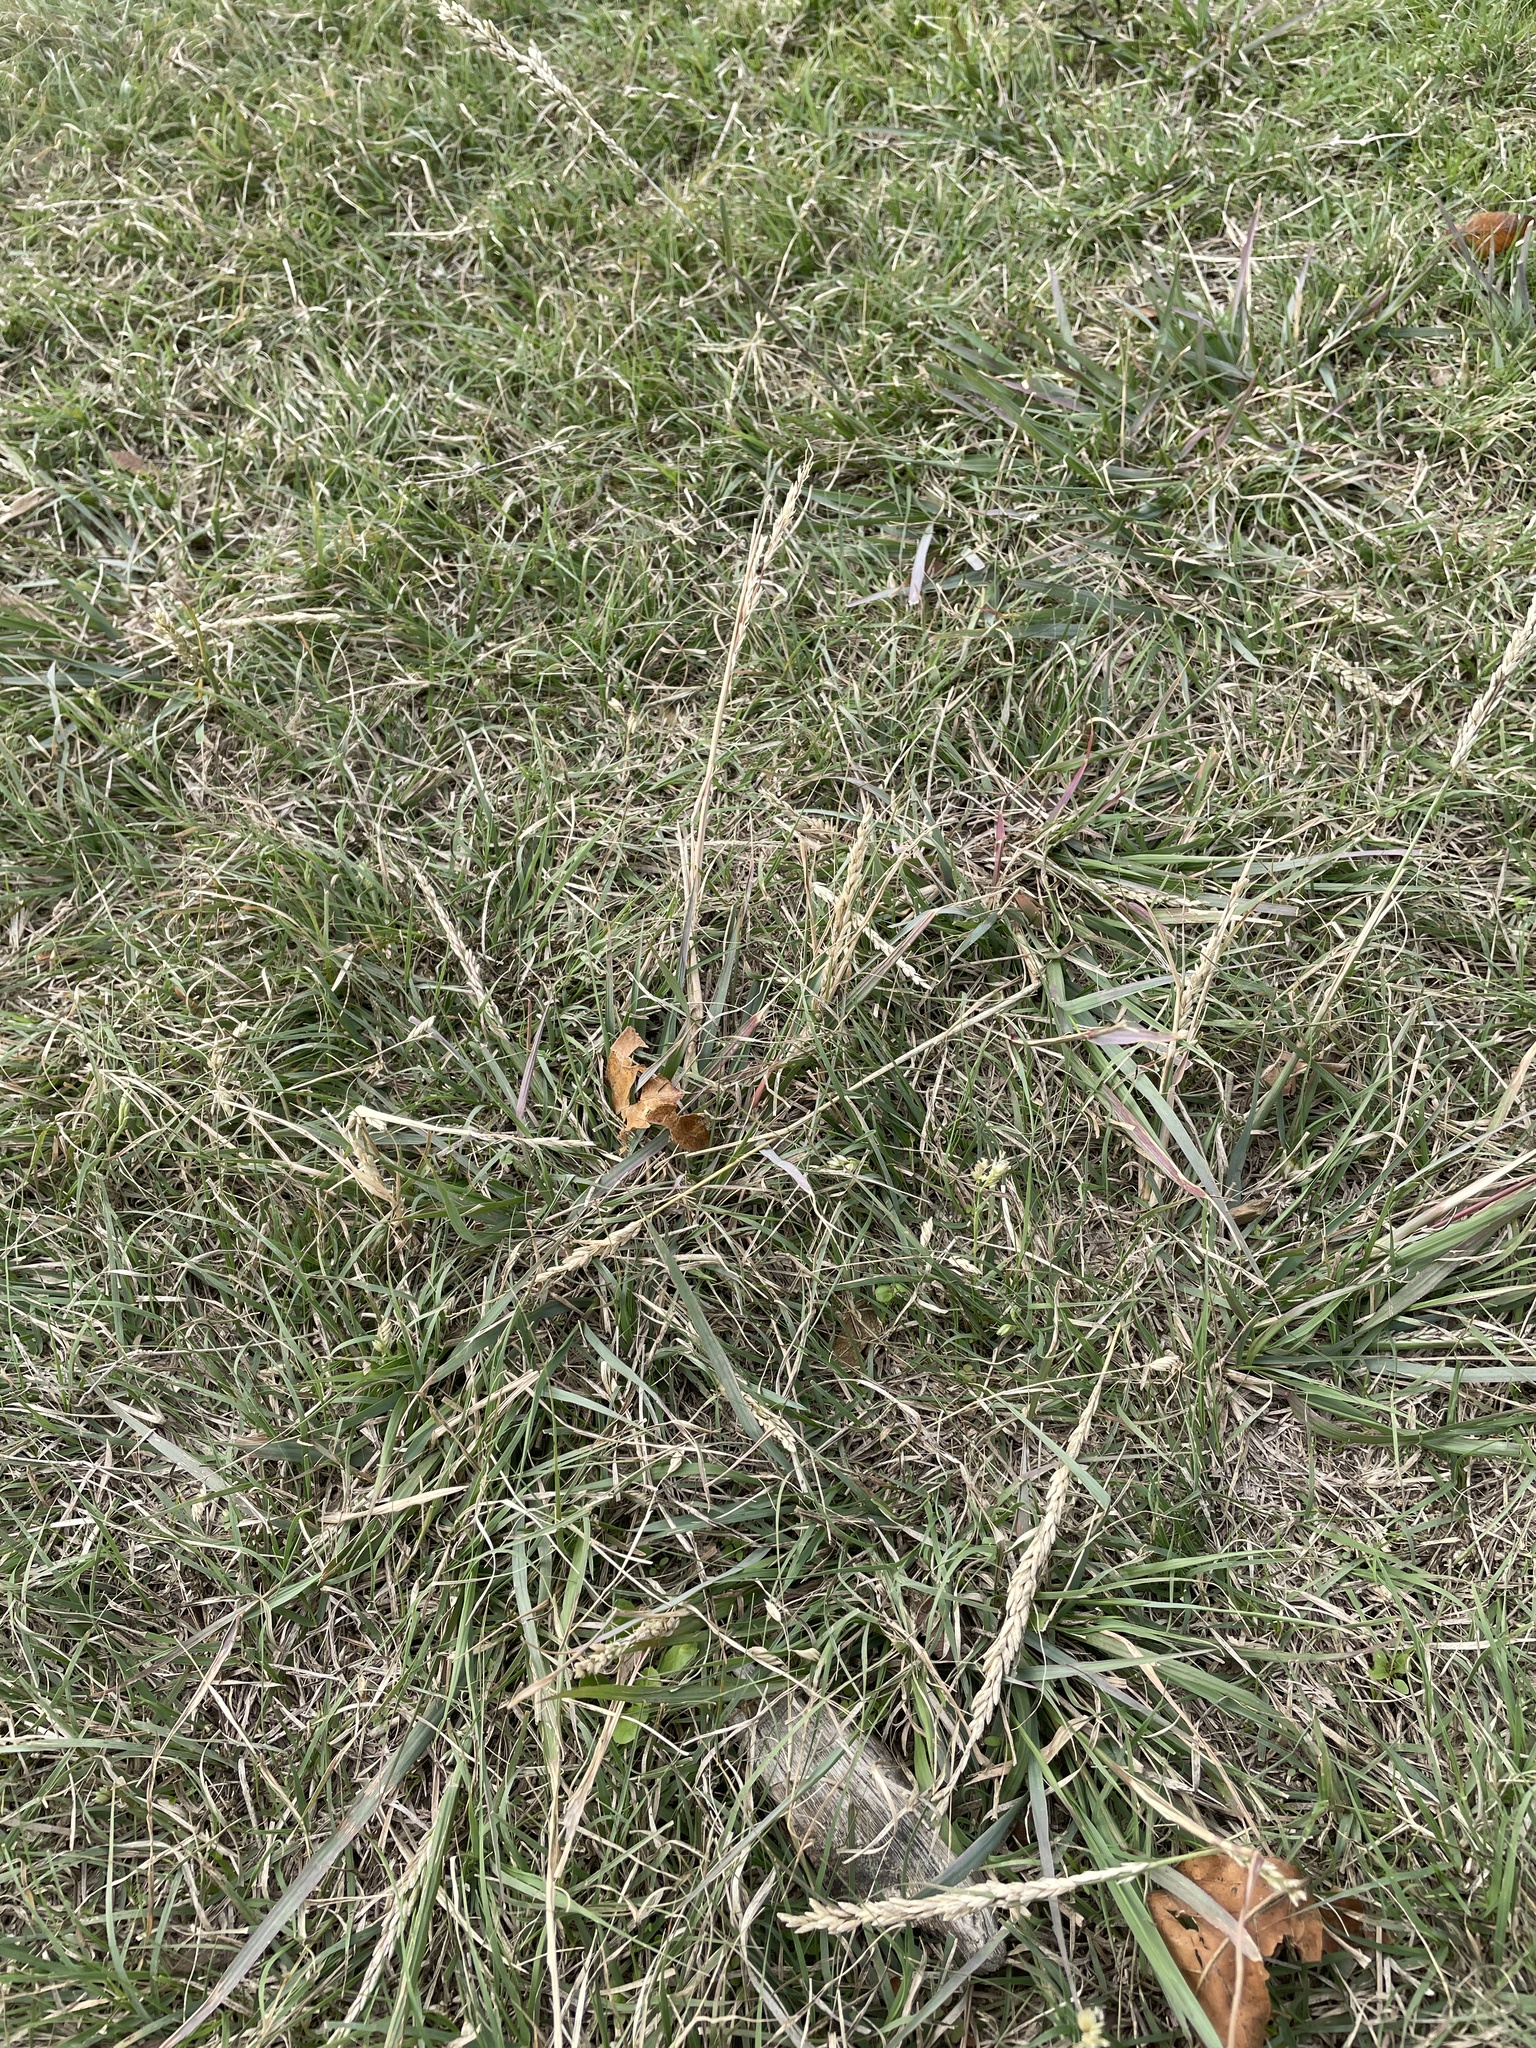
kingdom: Plantae
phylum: Tracheophyta
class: Liliopsida
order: Poales
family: Poaceae
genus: Tridens
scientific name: Tridens albescens
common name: White tridens
